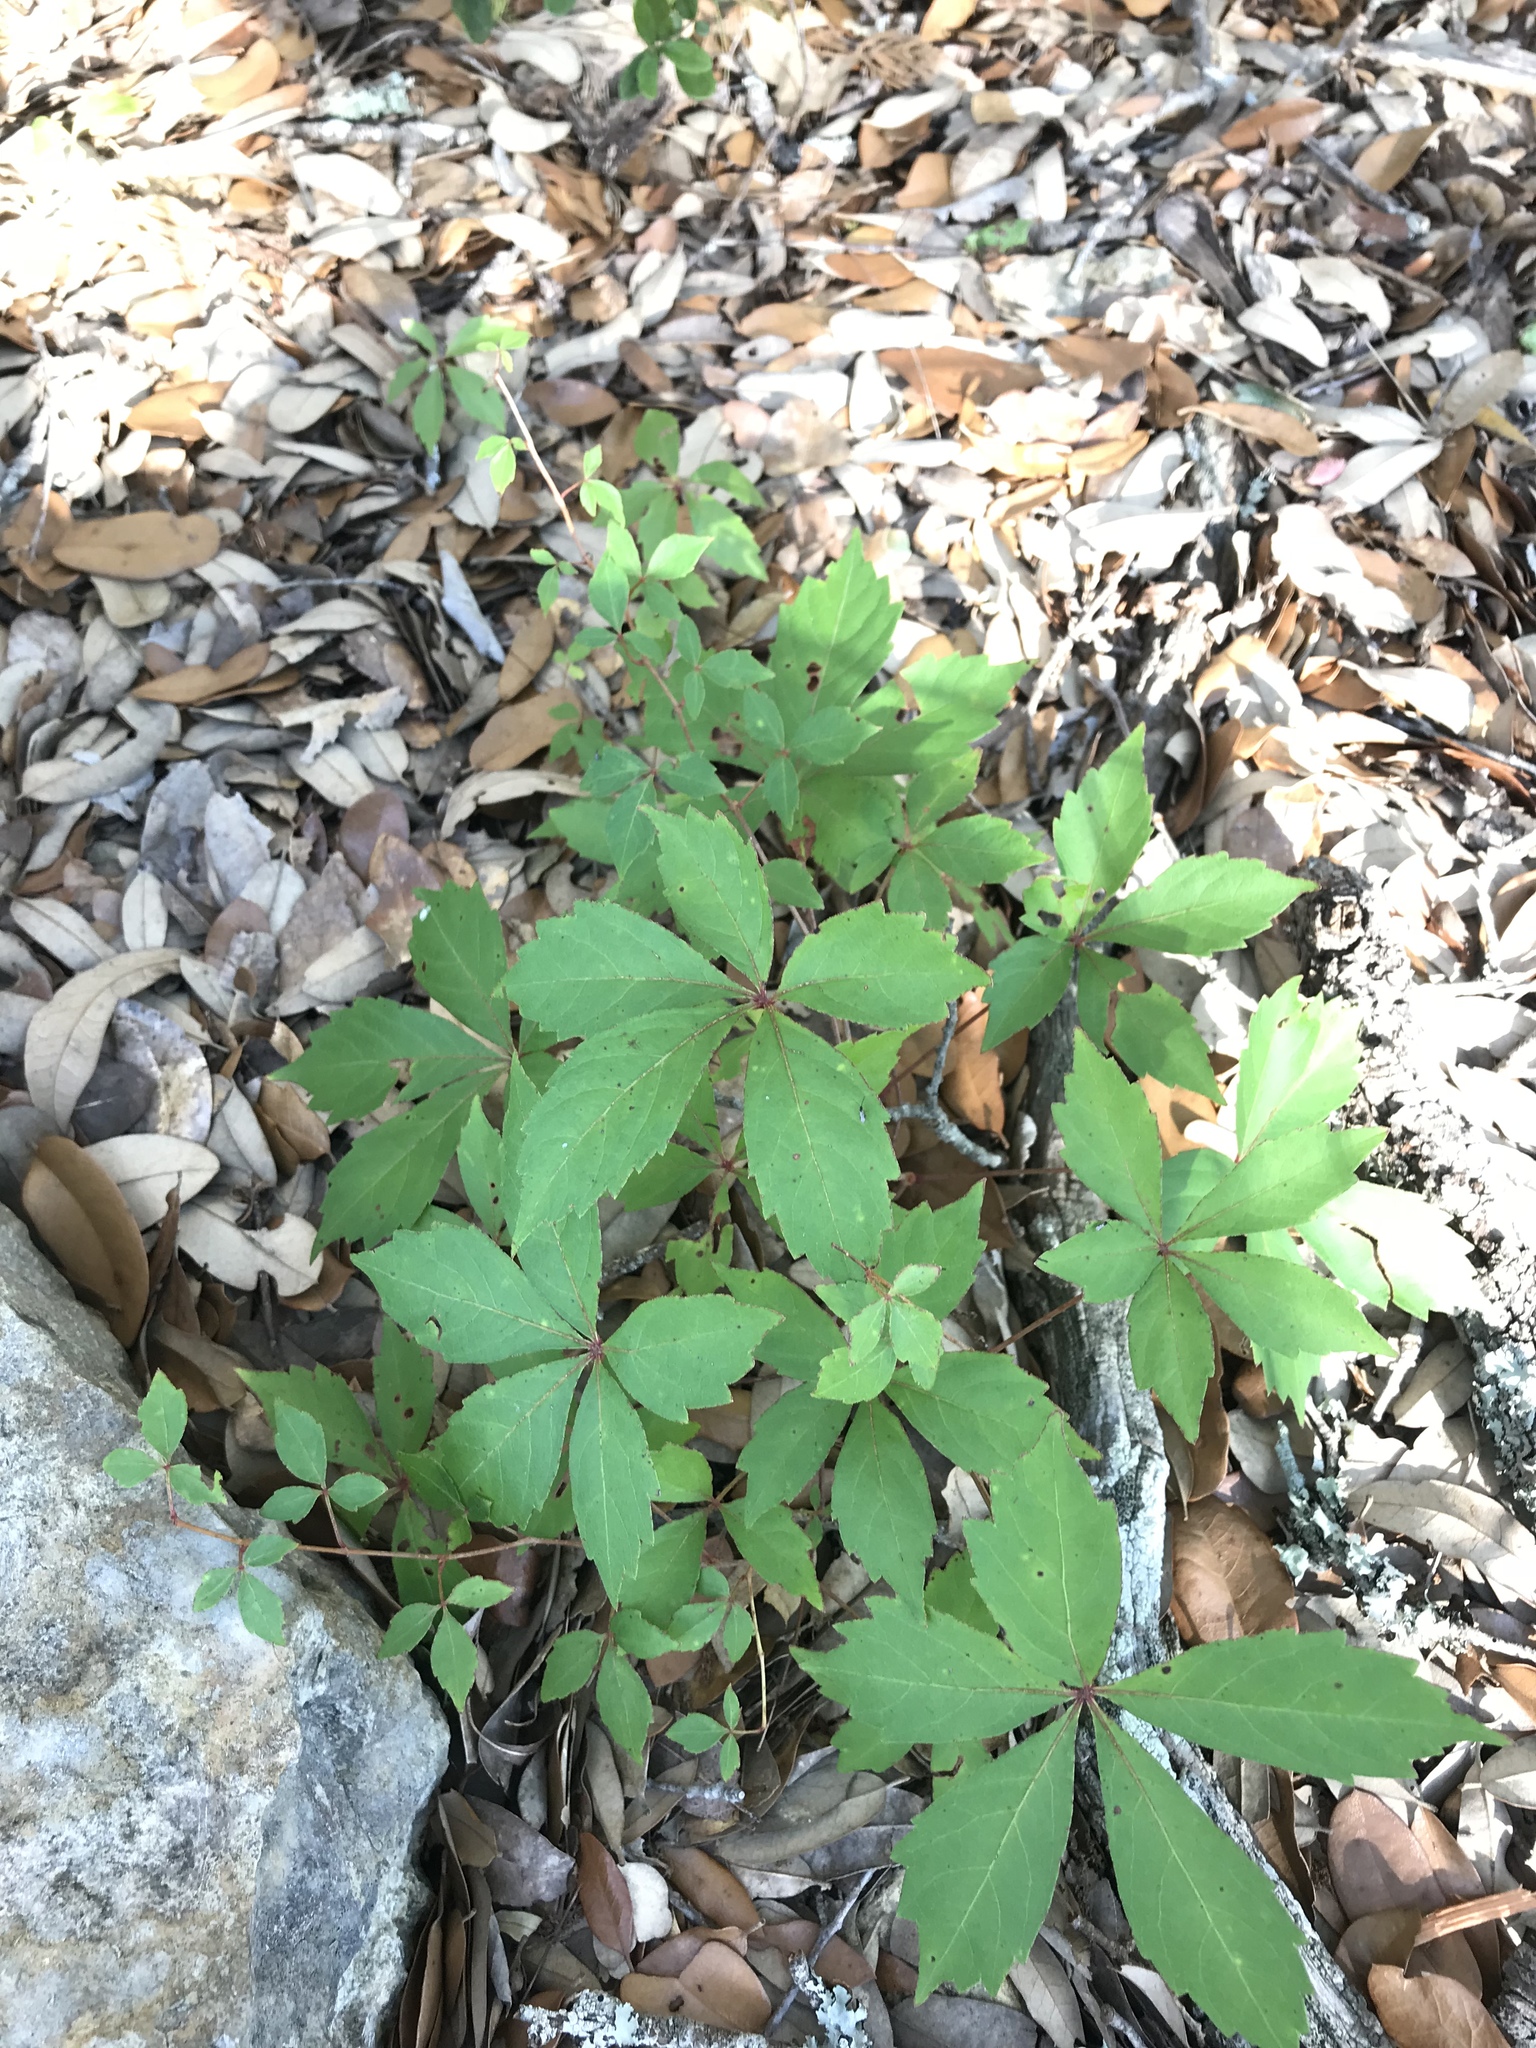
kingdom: Plantae
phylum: Tracheophyta
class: Magnoliopsida
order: Vitales
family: Vitaceae
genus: Parthenocissus
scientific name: Parthenocissus quinquefolia
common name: Virginia-creeper
